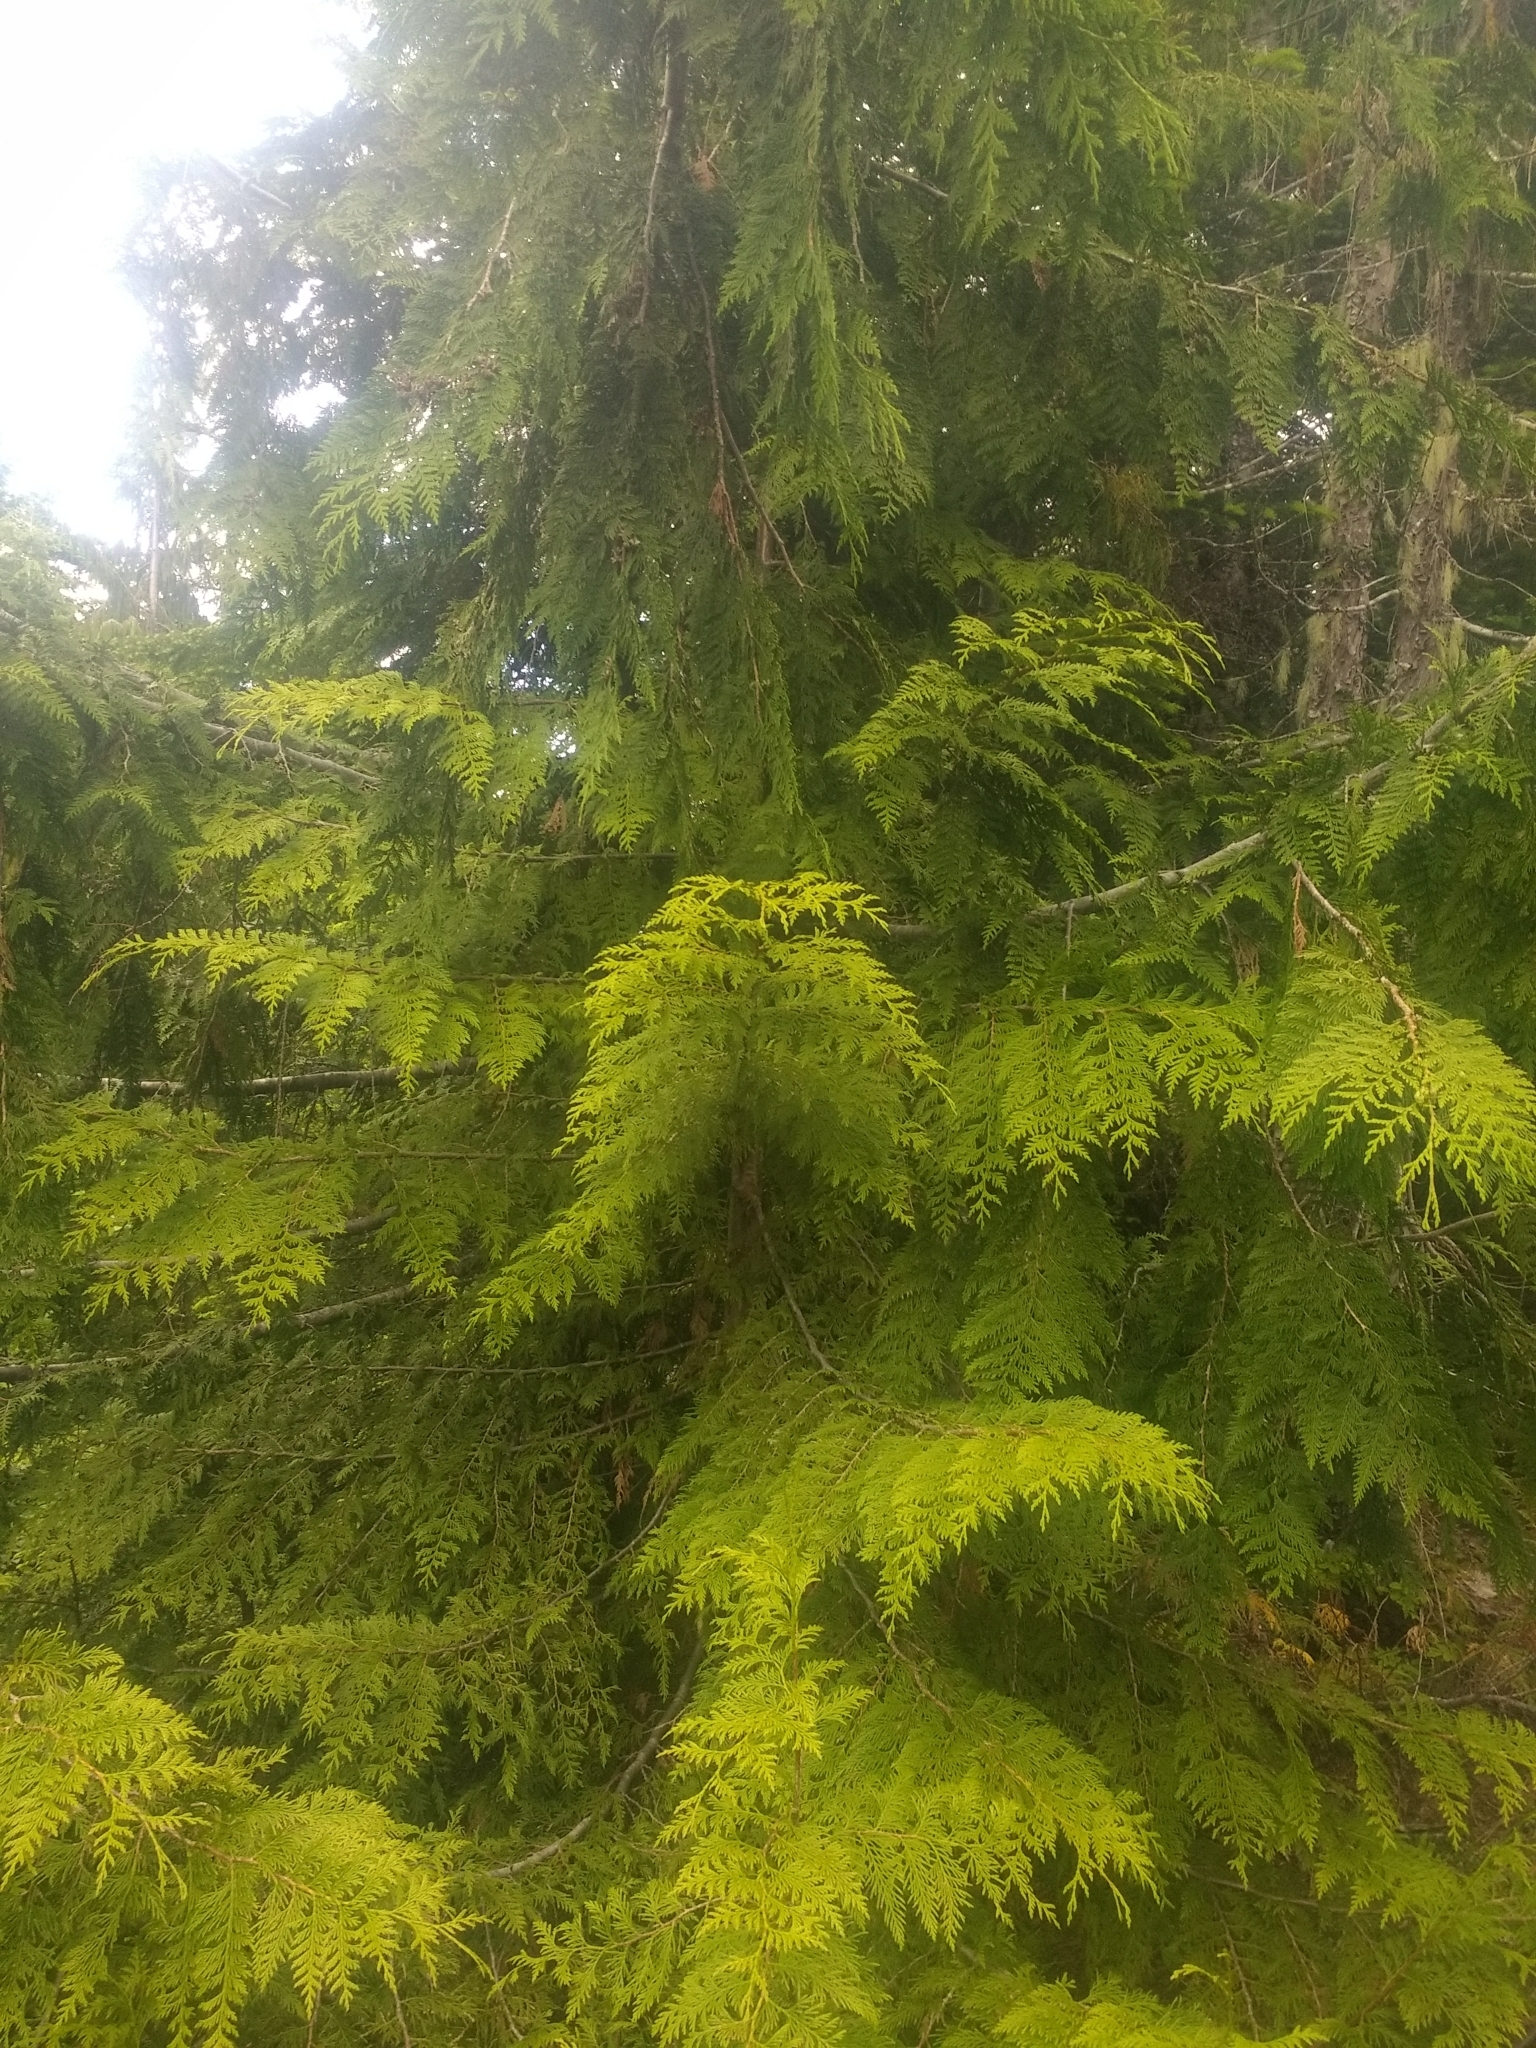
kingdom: Plantae
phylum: Tracheophyta
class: Pinopsida
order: Pinales
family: Cupressaceae
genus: Thuja
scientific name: Thuja plicata
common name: Western red-cedar
